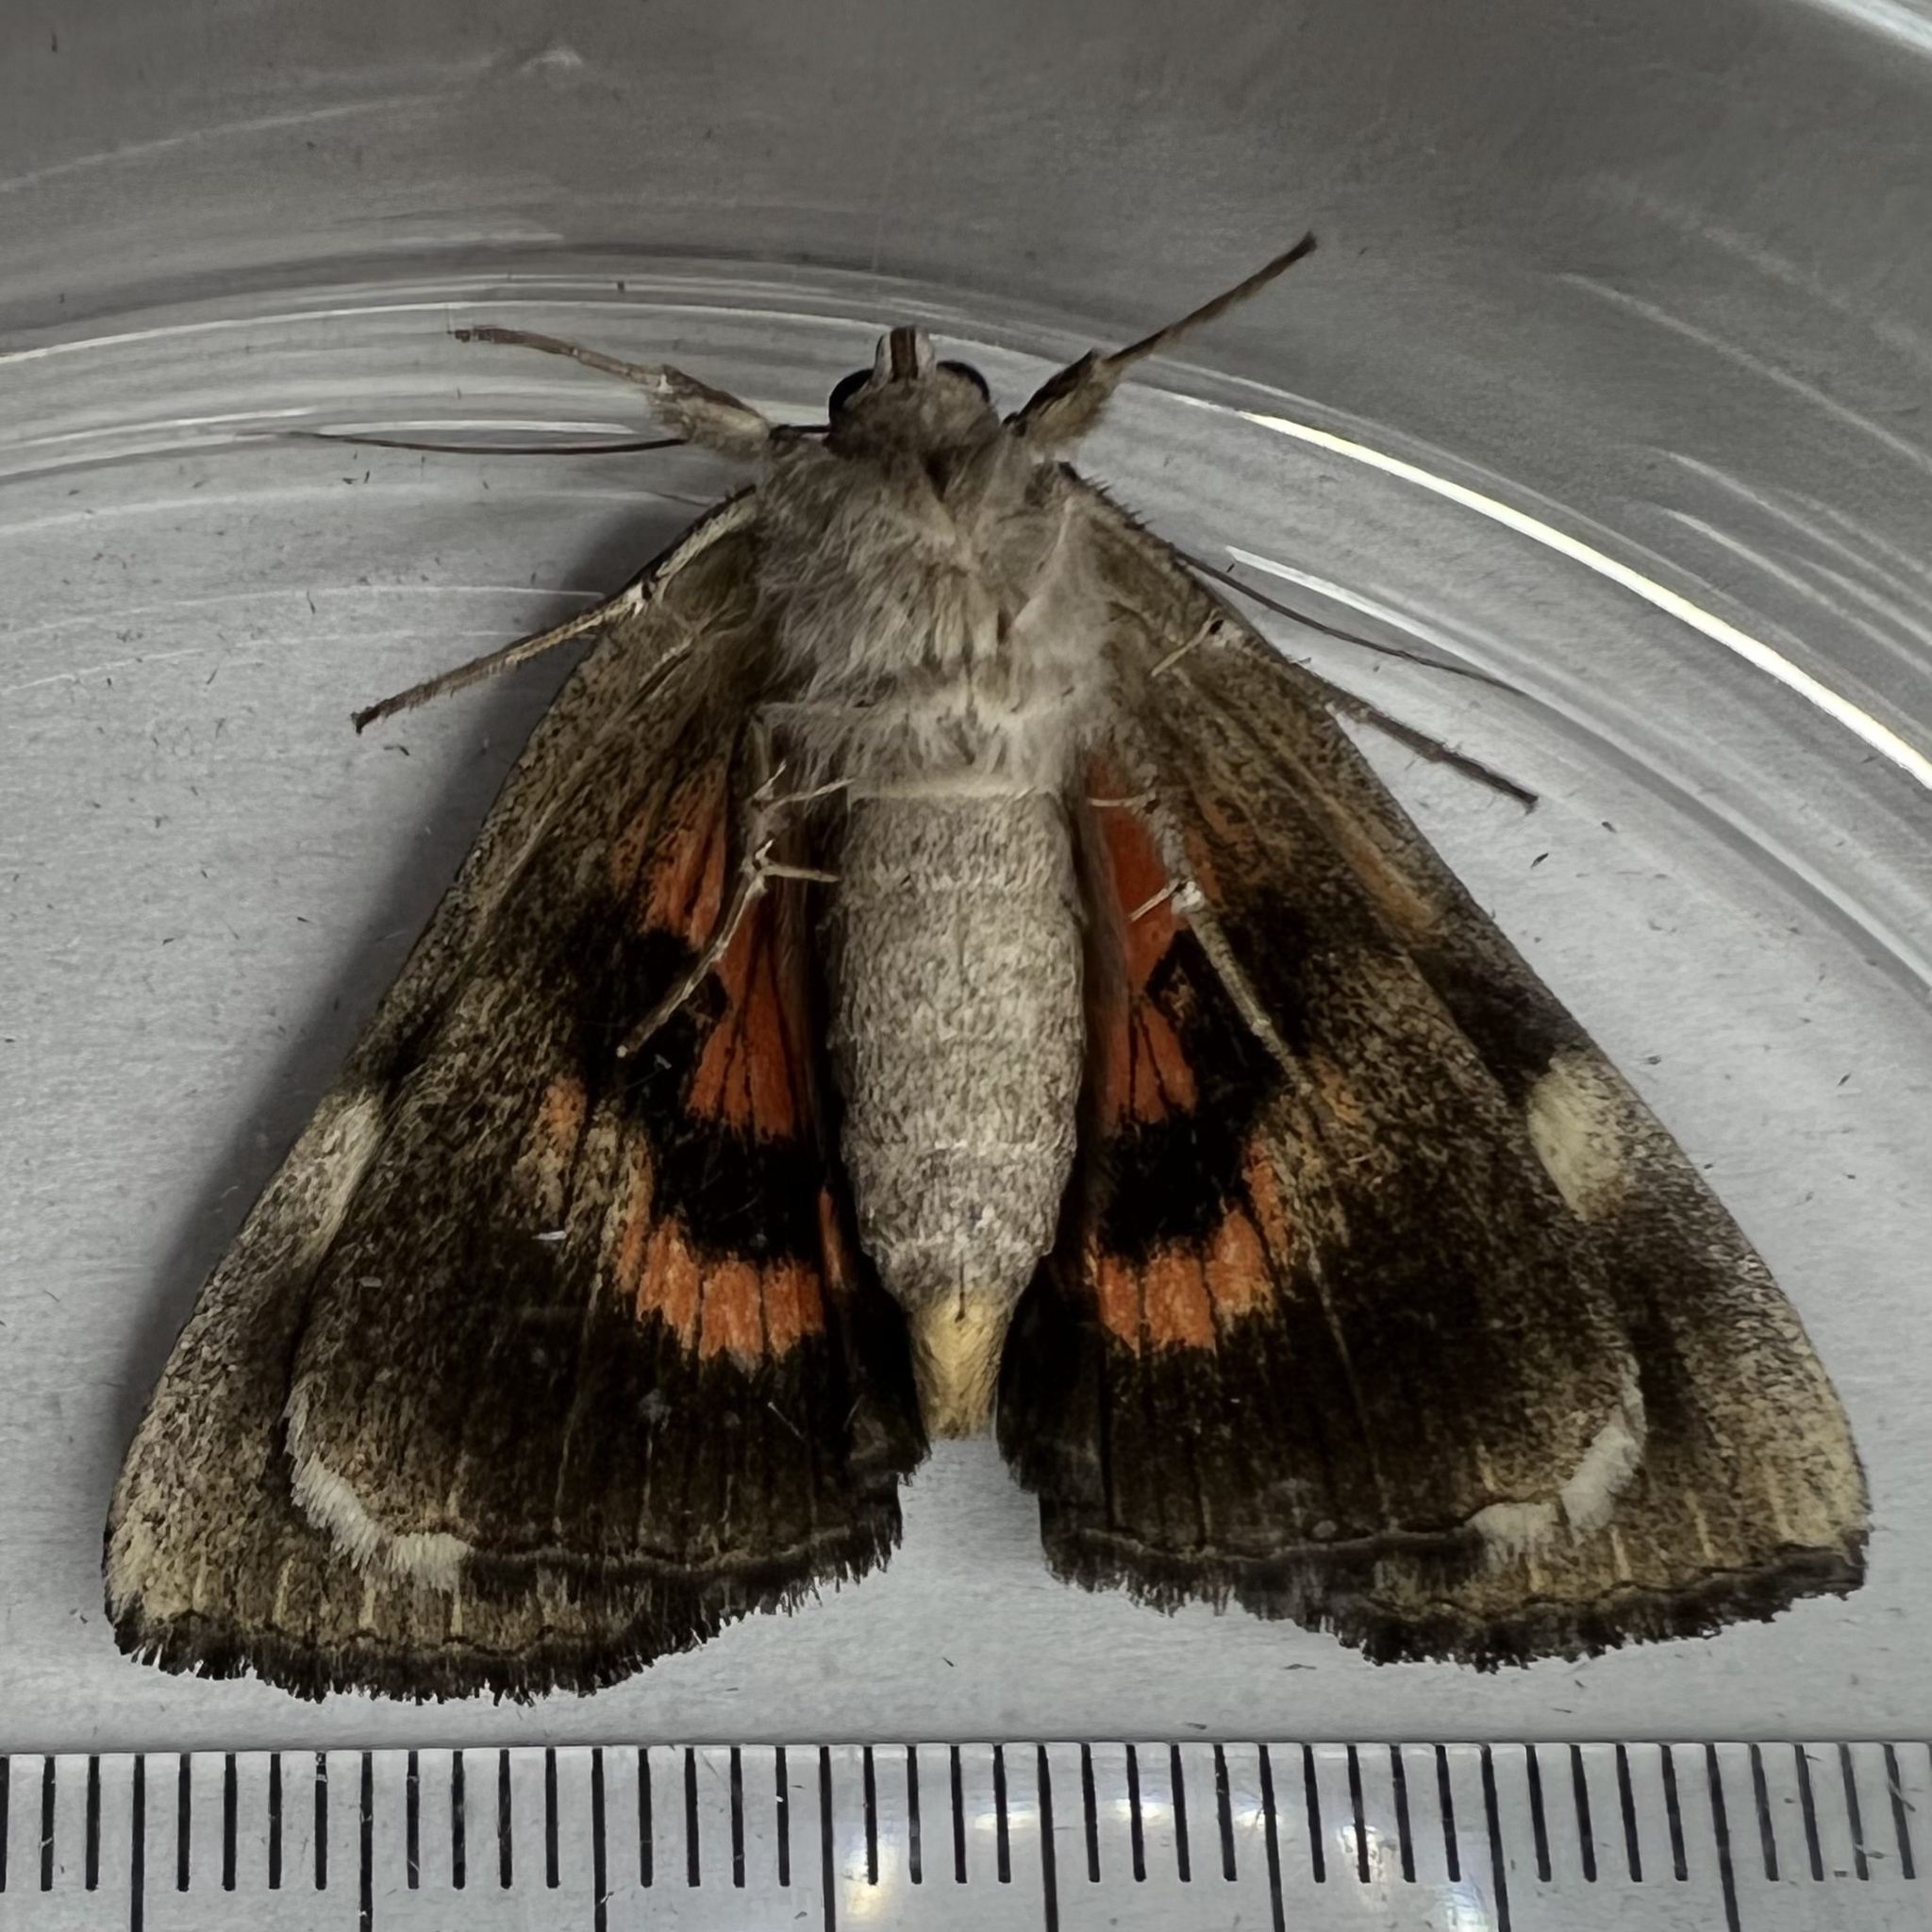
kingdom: Animalia
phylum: Arthropoda
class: Insecta
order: Lepidoptera
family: Erebidae
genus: Catocala
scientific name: Catocala ultronia
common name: Ultronia underwing
